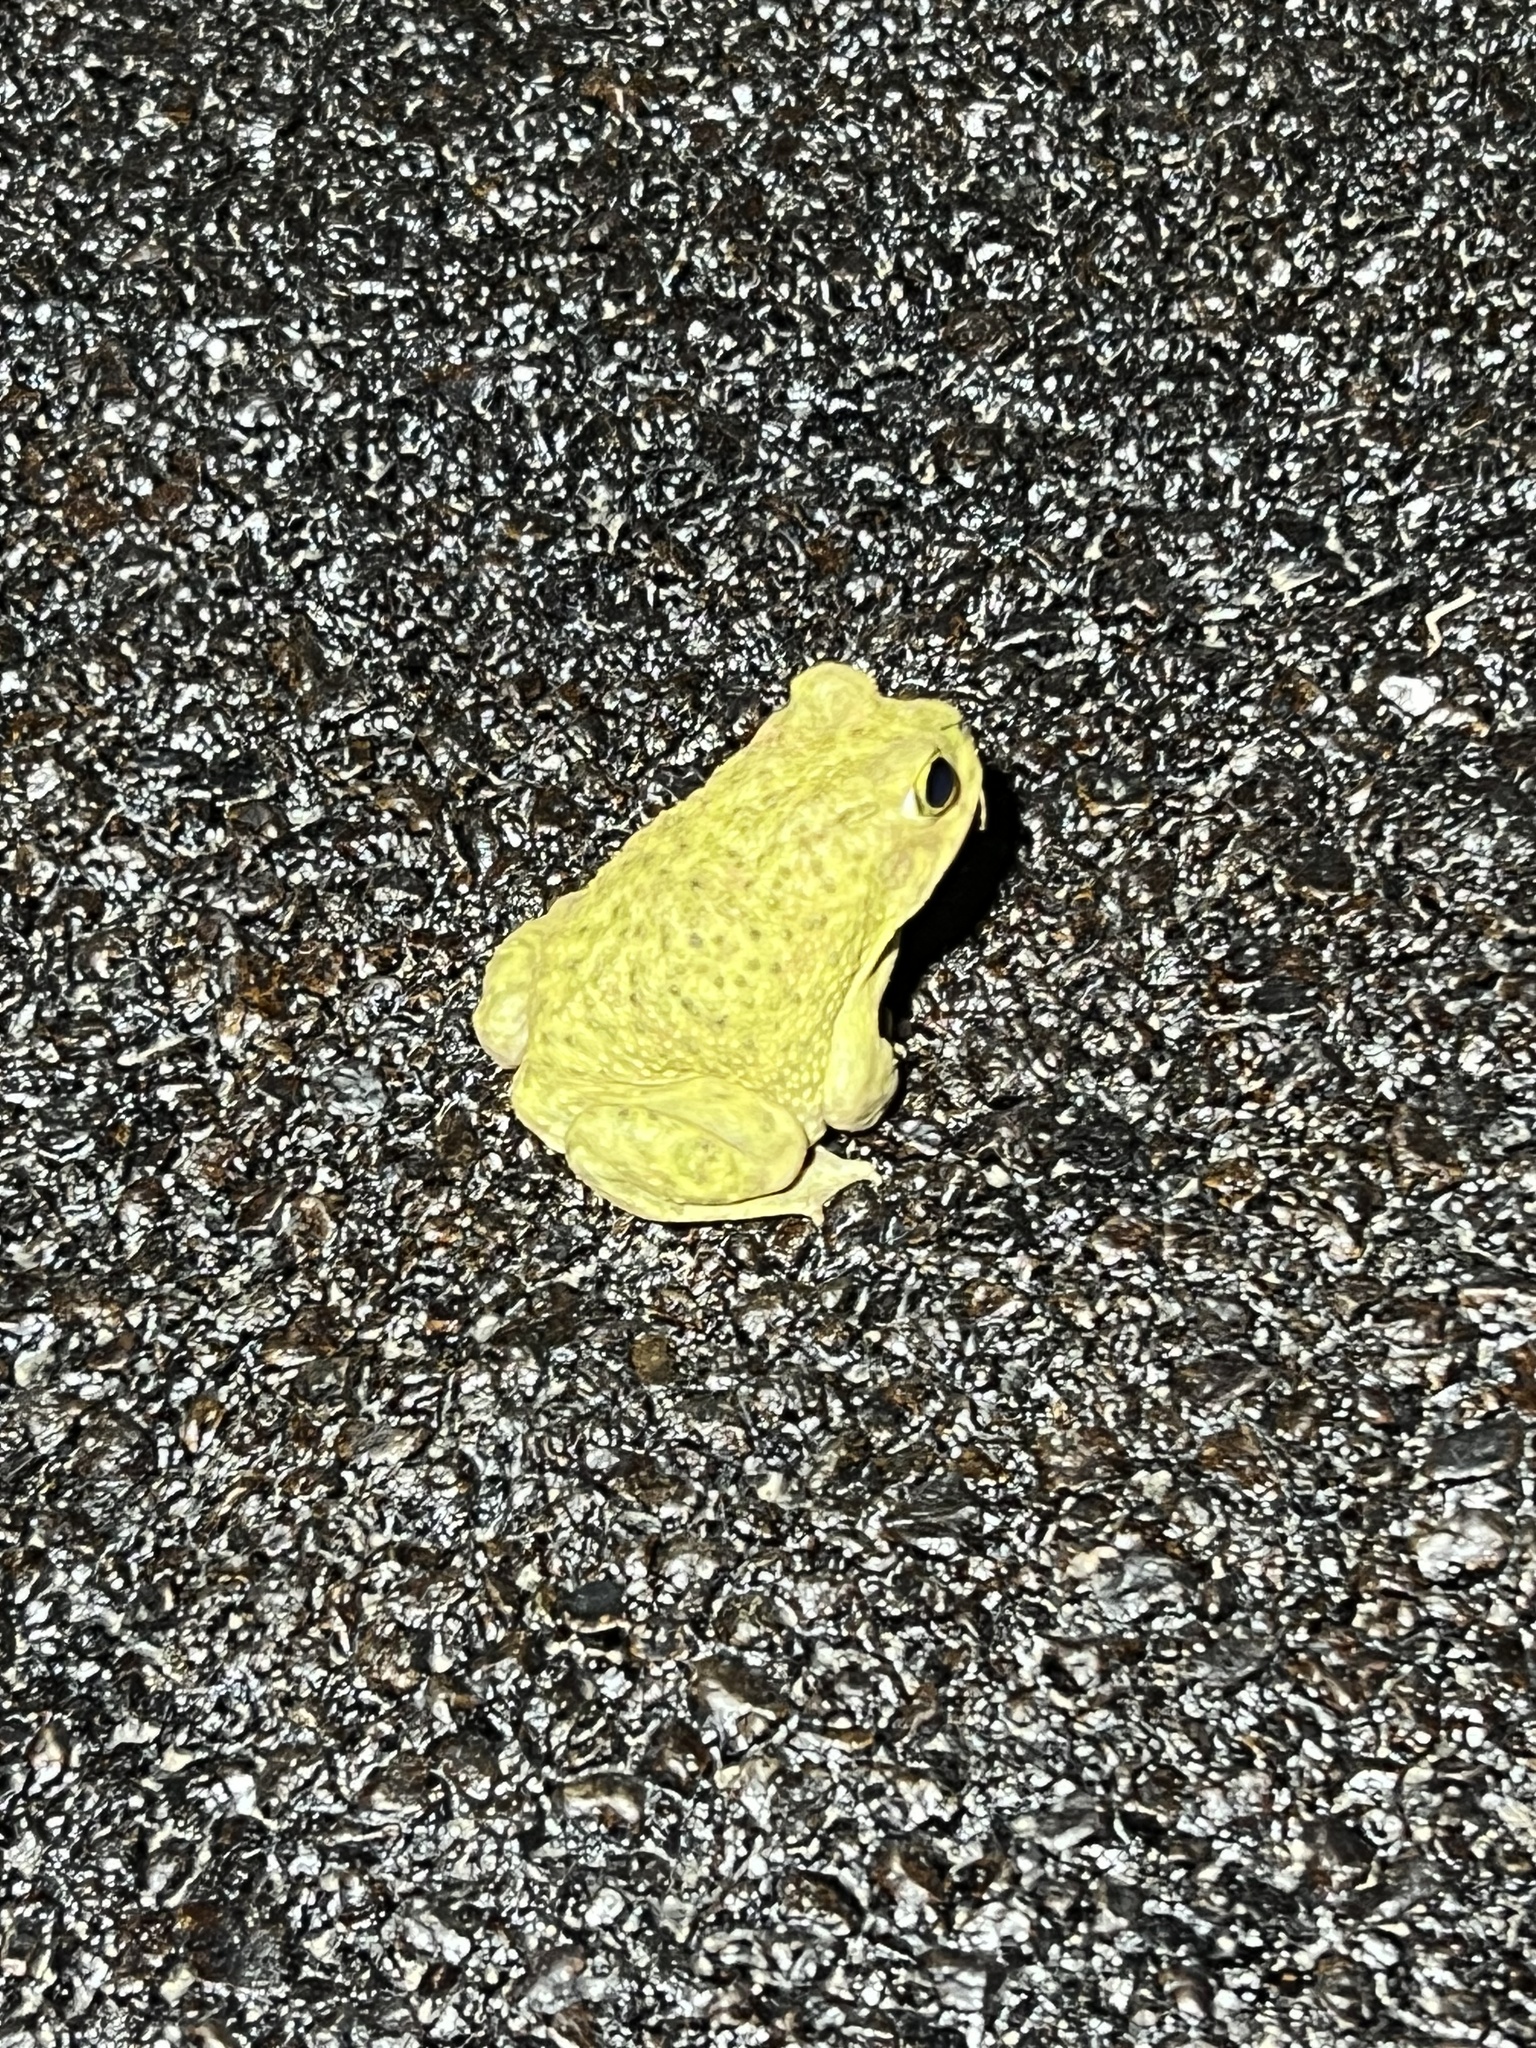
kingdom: Animalia
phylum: Chordata
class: Amphibia
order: Anura
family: Scaphiopodidae
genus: Scaphiopus
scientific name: Scaphiopus couchii
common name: Couch's spadefoot toad
